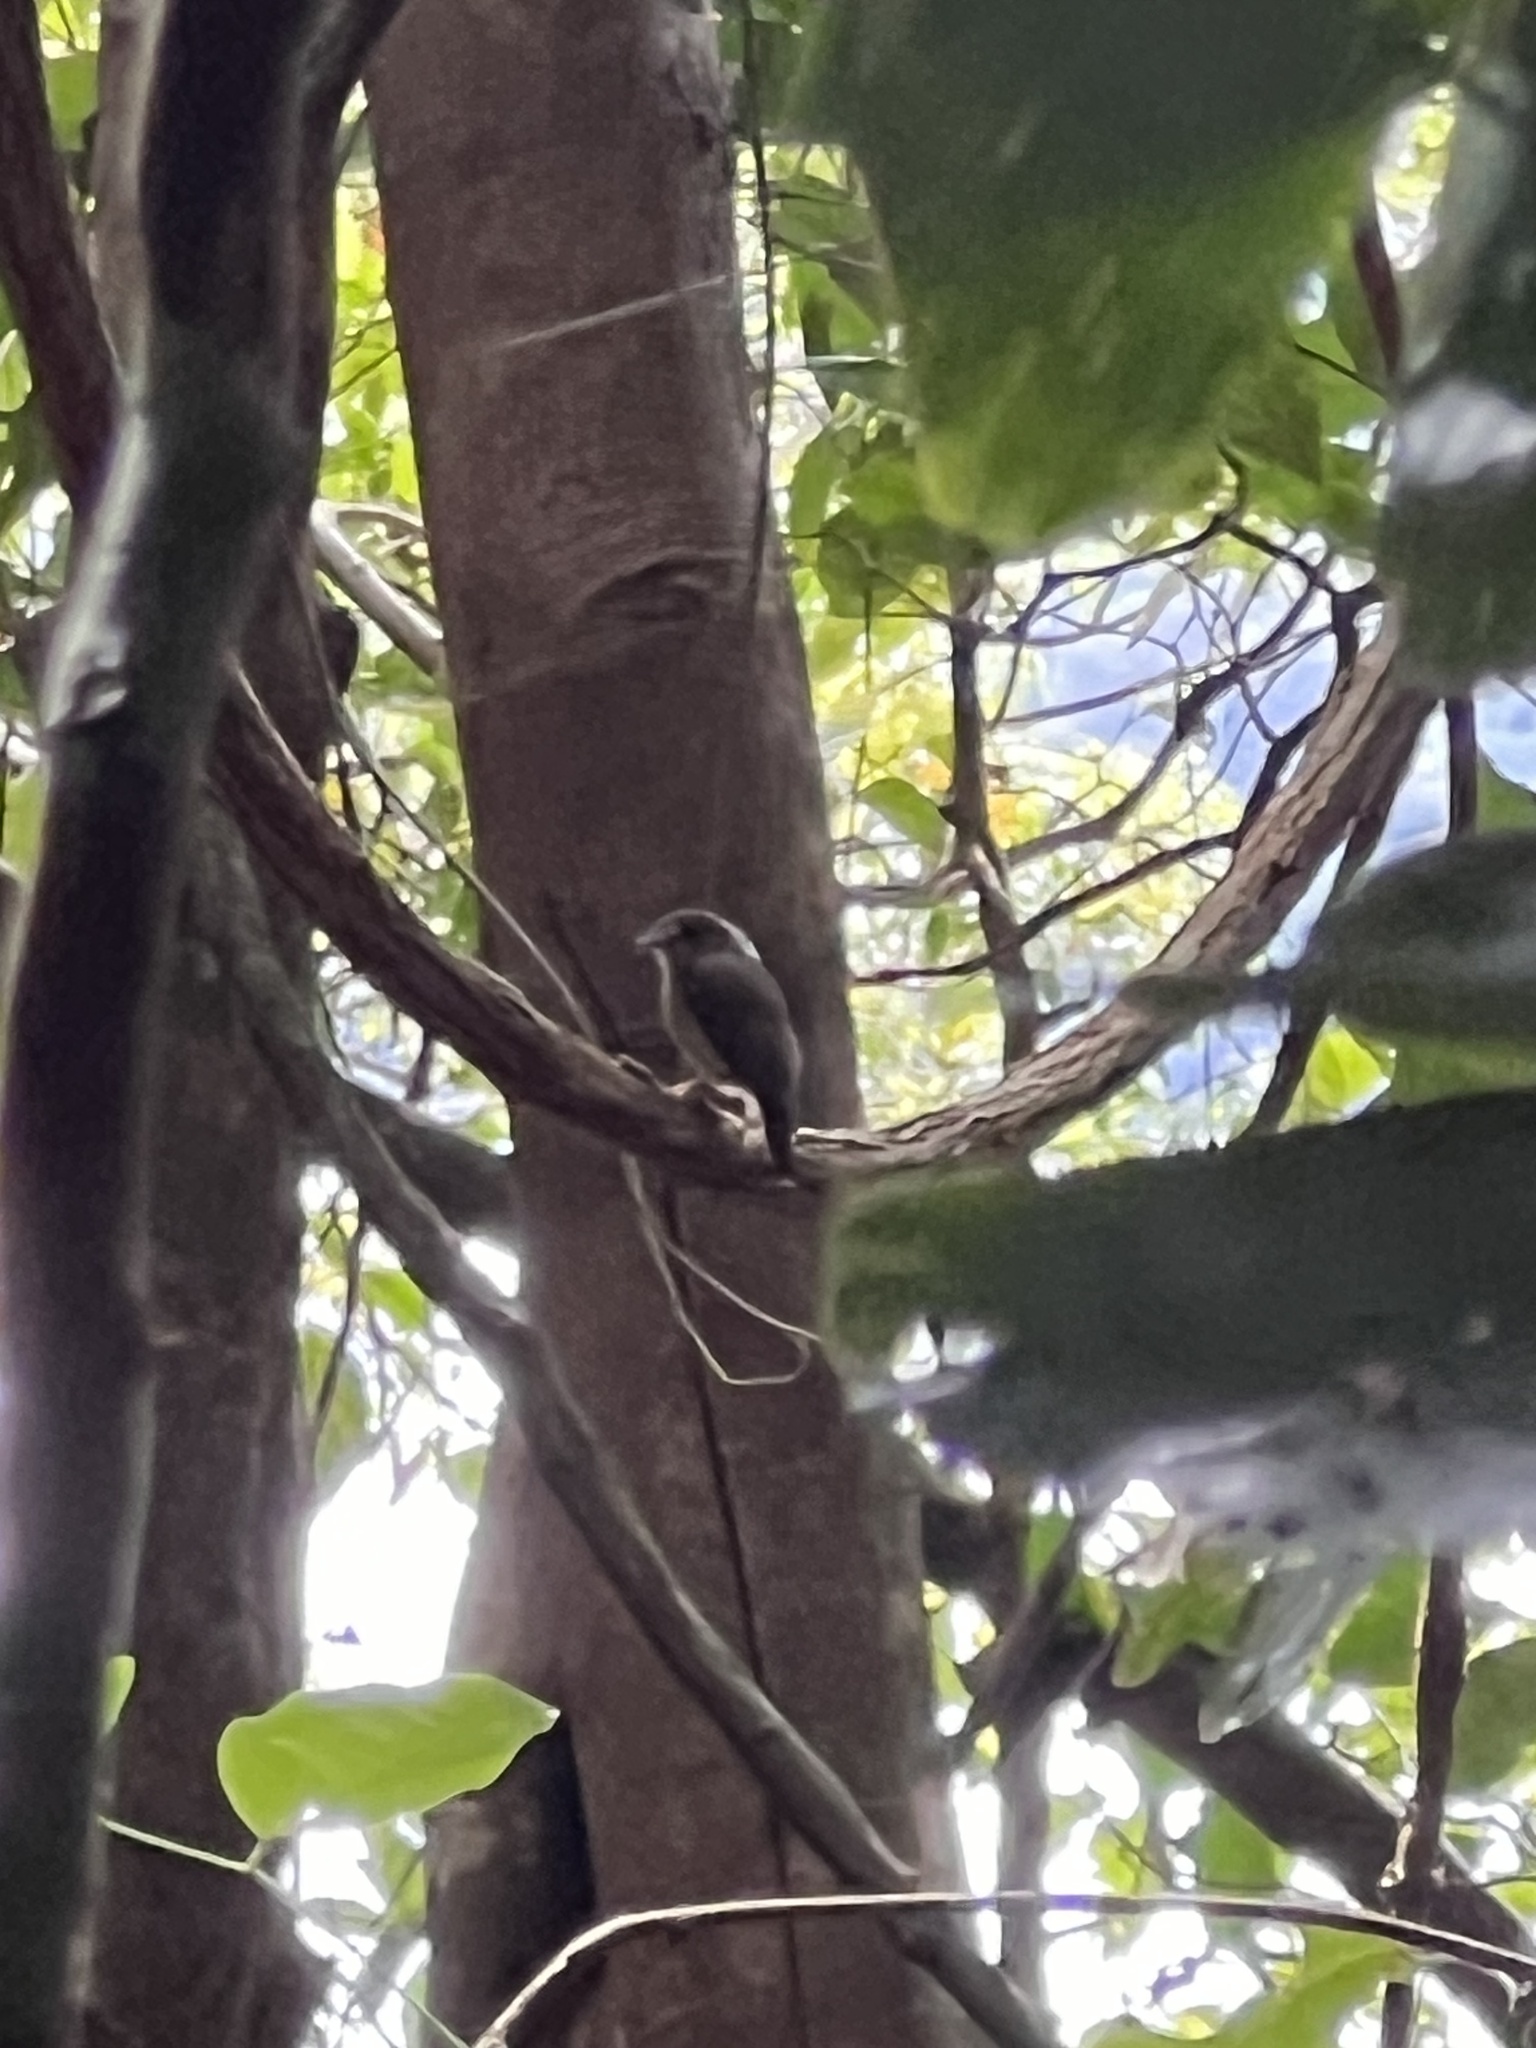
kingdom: Animalia
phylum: Chordata
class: Aves
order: Passeriformes
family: Petroicidae
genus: Eopsaltria
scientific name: Eopsaltria
